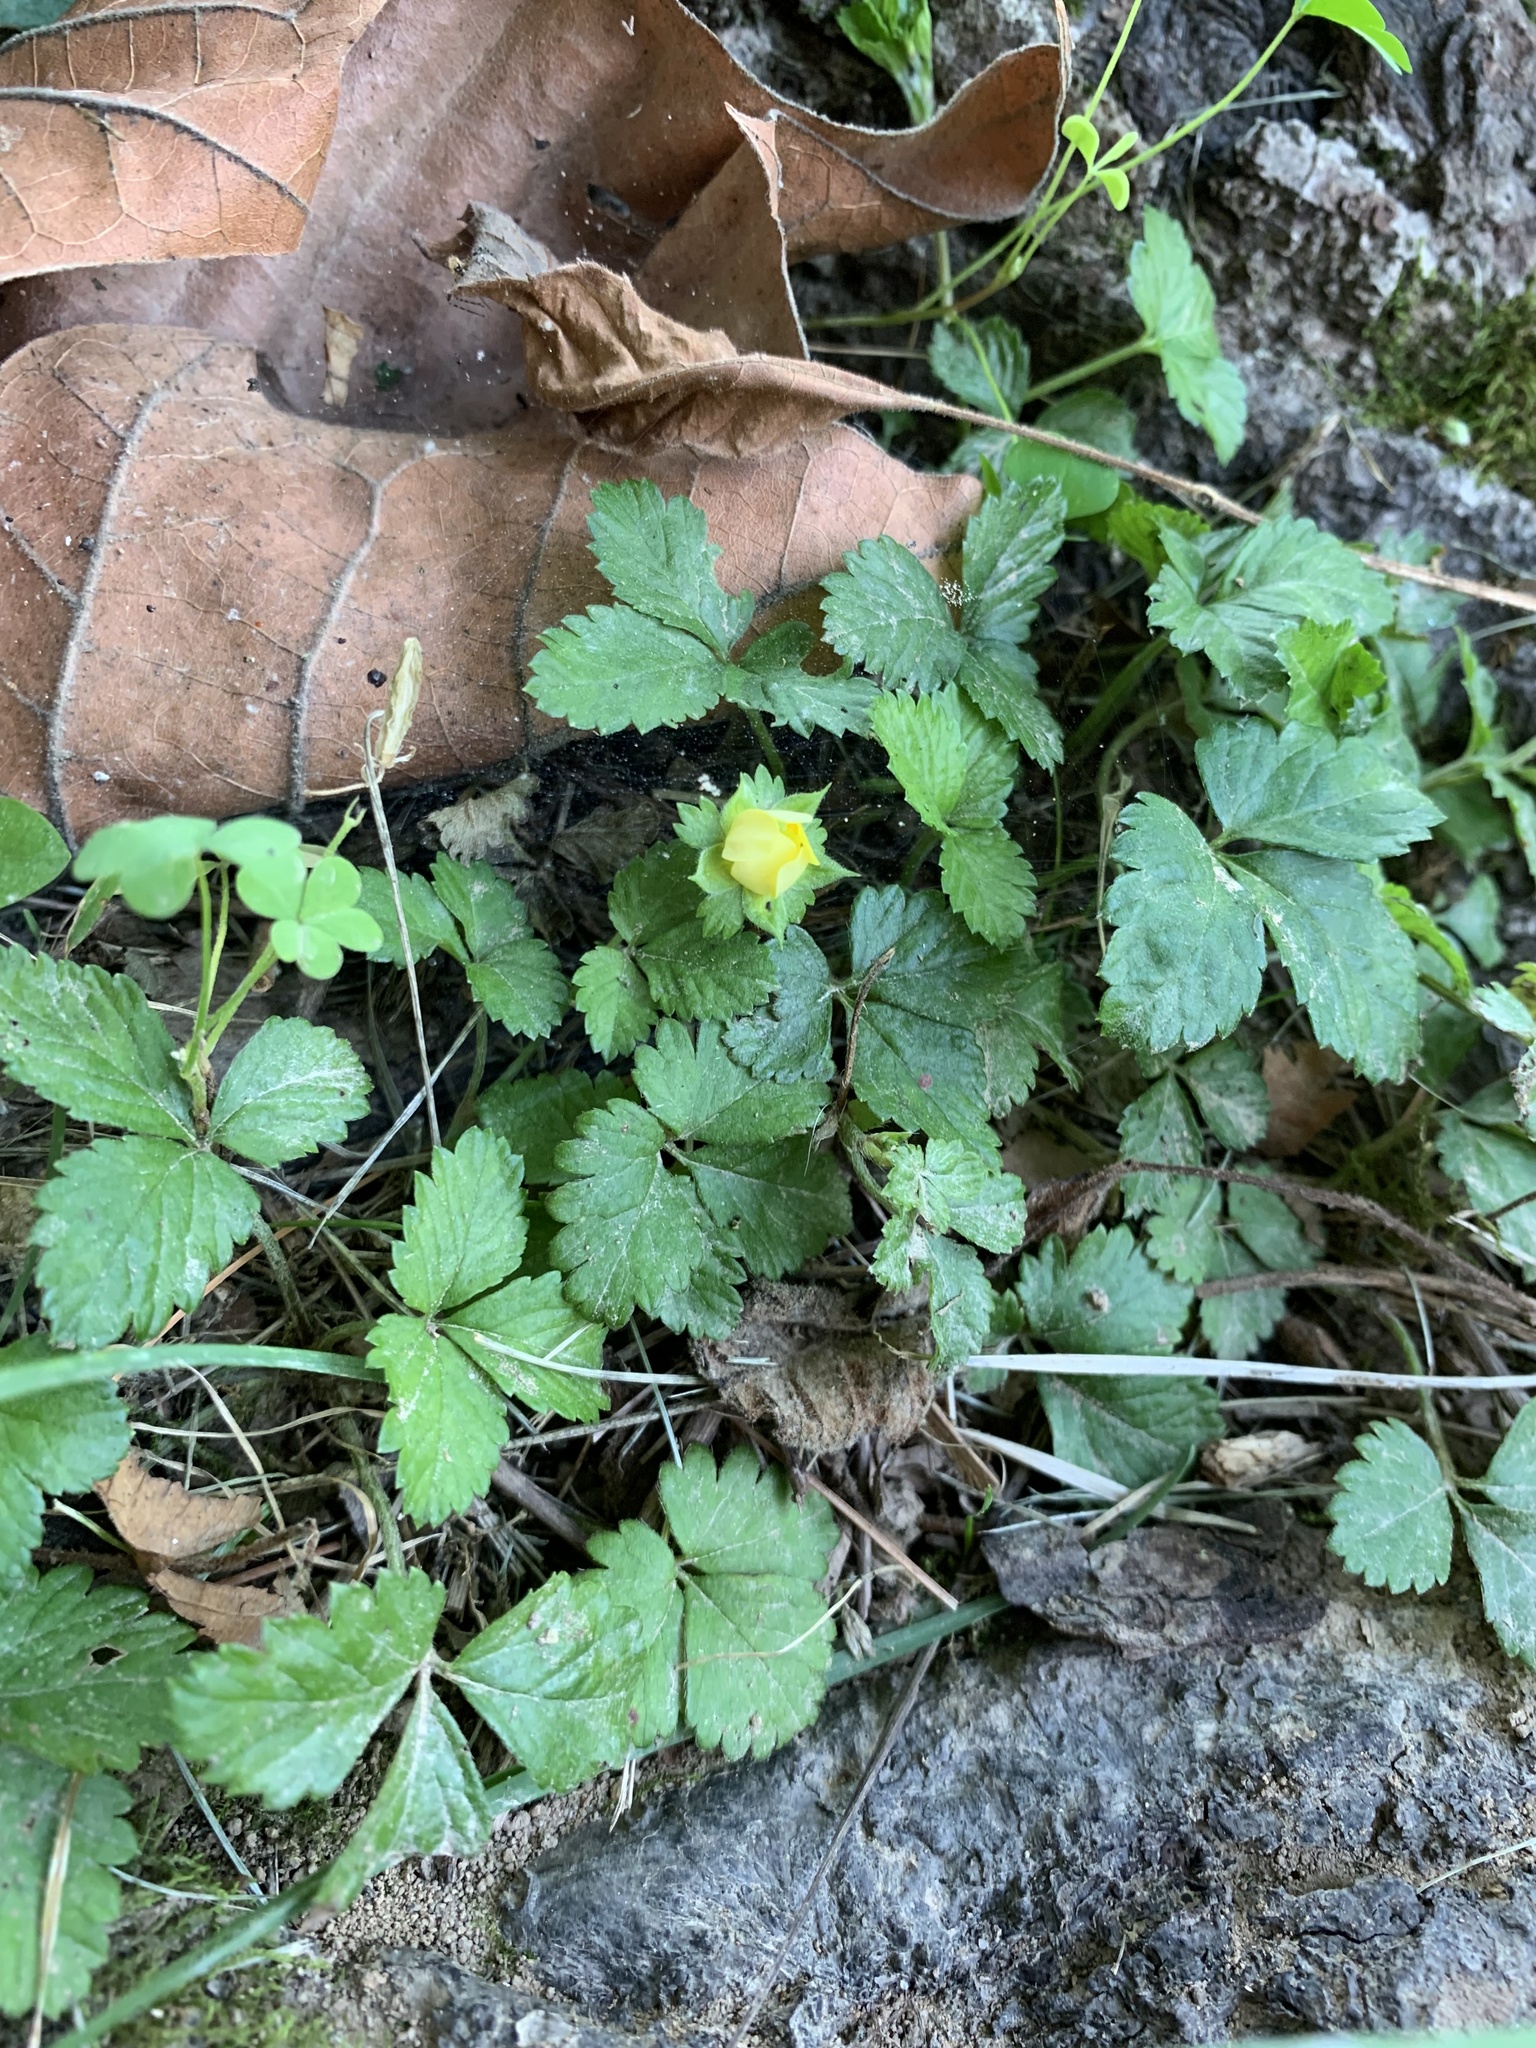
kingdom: Plantae
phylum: Tracheophyta
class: Magnoliopsida
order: Rosales
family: Rosaceae
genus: Potentilla
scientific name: Potentilla indica
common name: Yellow-flowered strawberry
